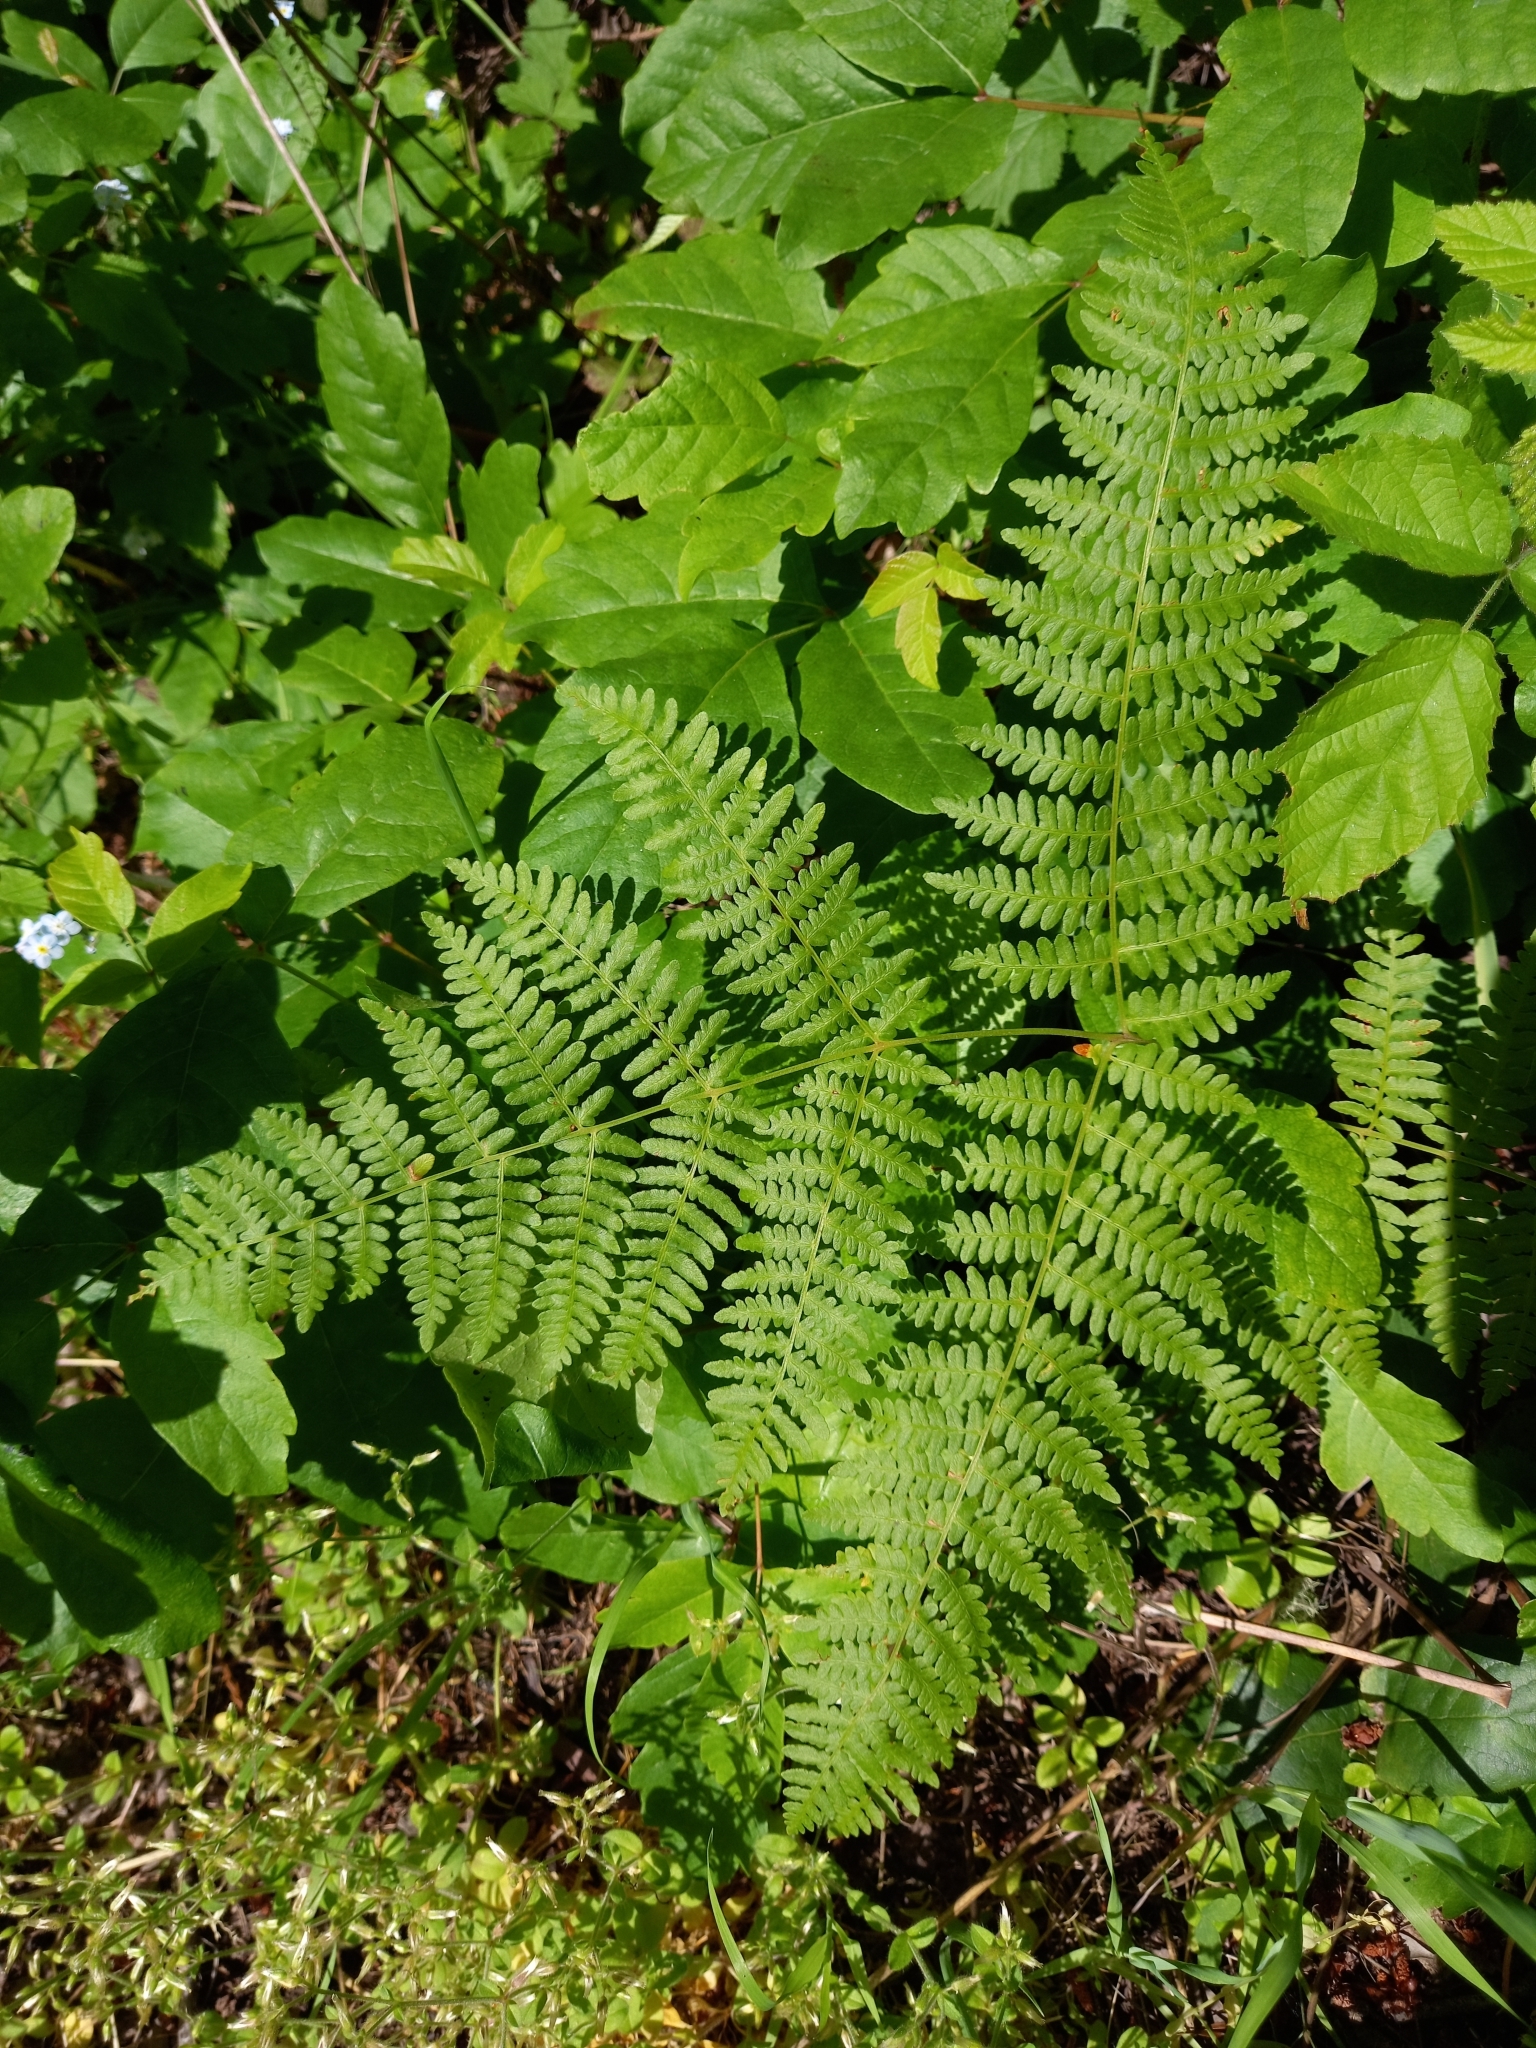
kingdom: Plantae
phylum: Tracheophyta
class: Polypodiopsida
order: Polypodiales
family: Dennstaedtiaceae
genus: Pteridium
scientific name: Pteridium aquilinum
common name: Bracken
